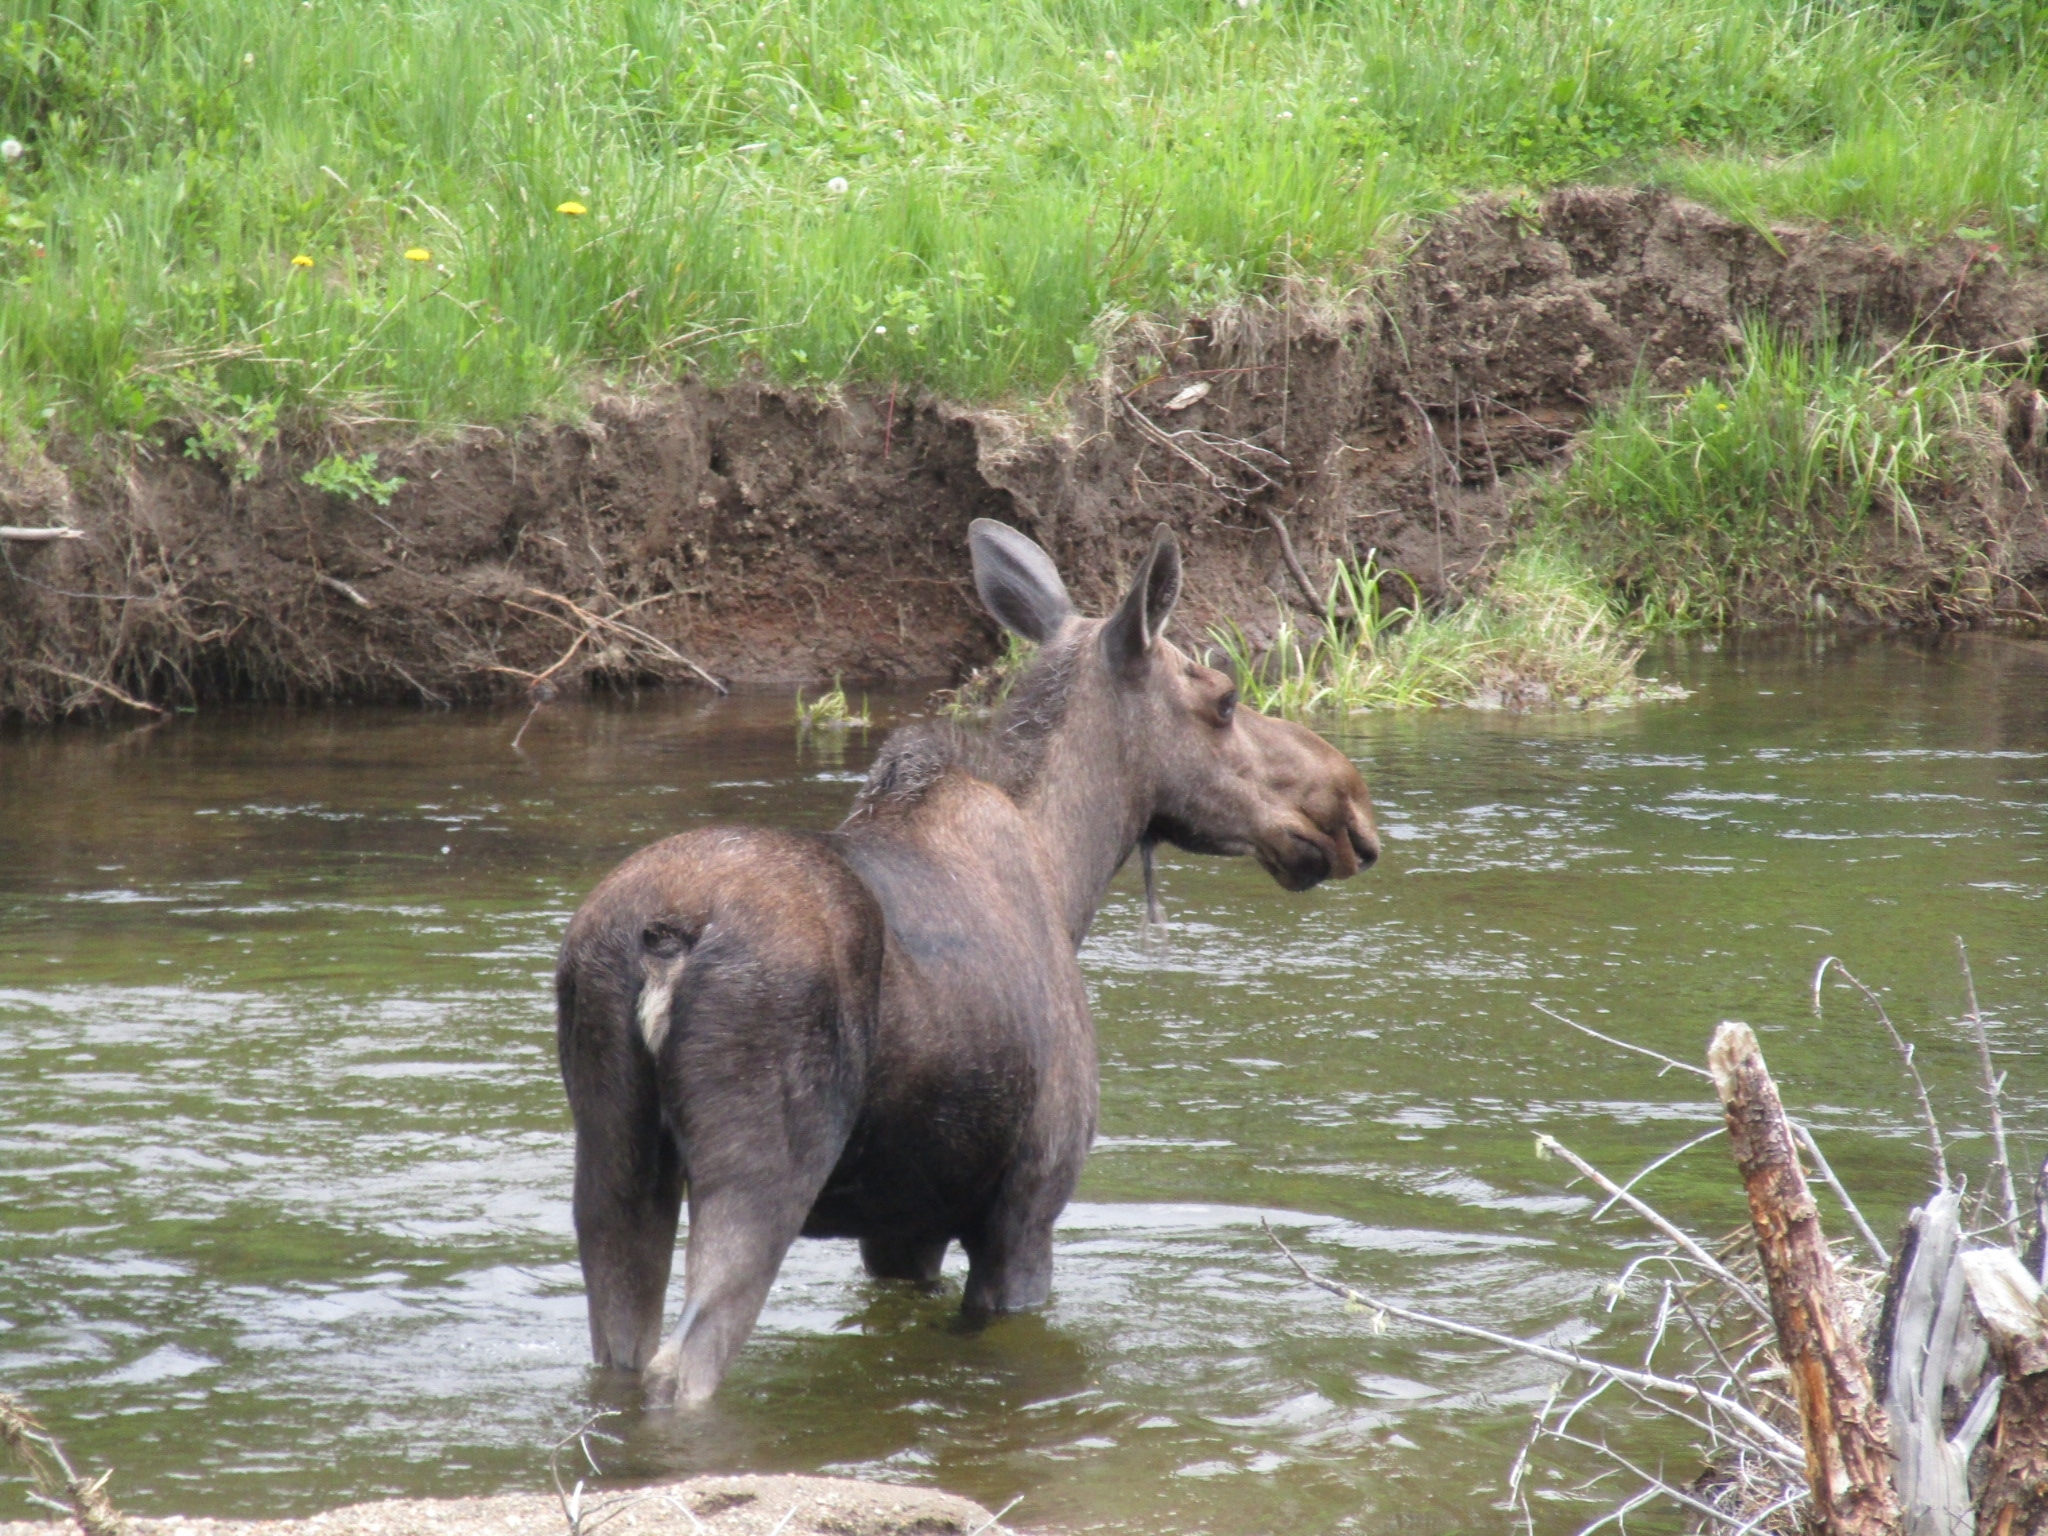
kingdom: Animalia
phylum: Chordata
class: Mammalia
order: Artiodactyla
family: Cervidae
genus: Alces
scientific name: Alces americanus
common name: Moose
